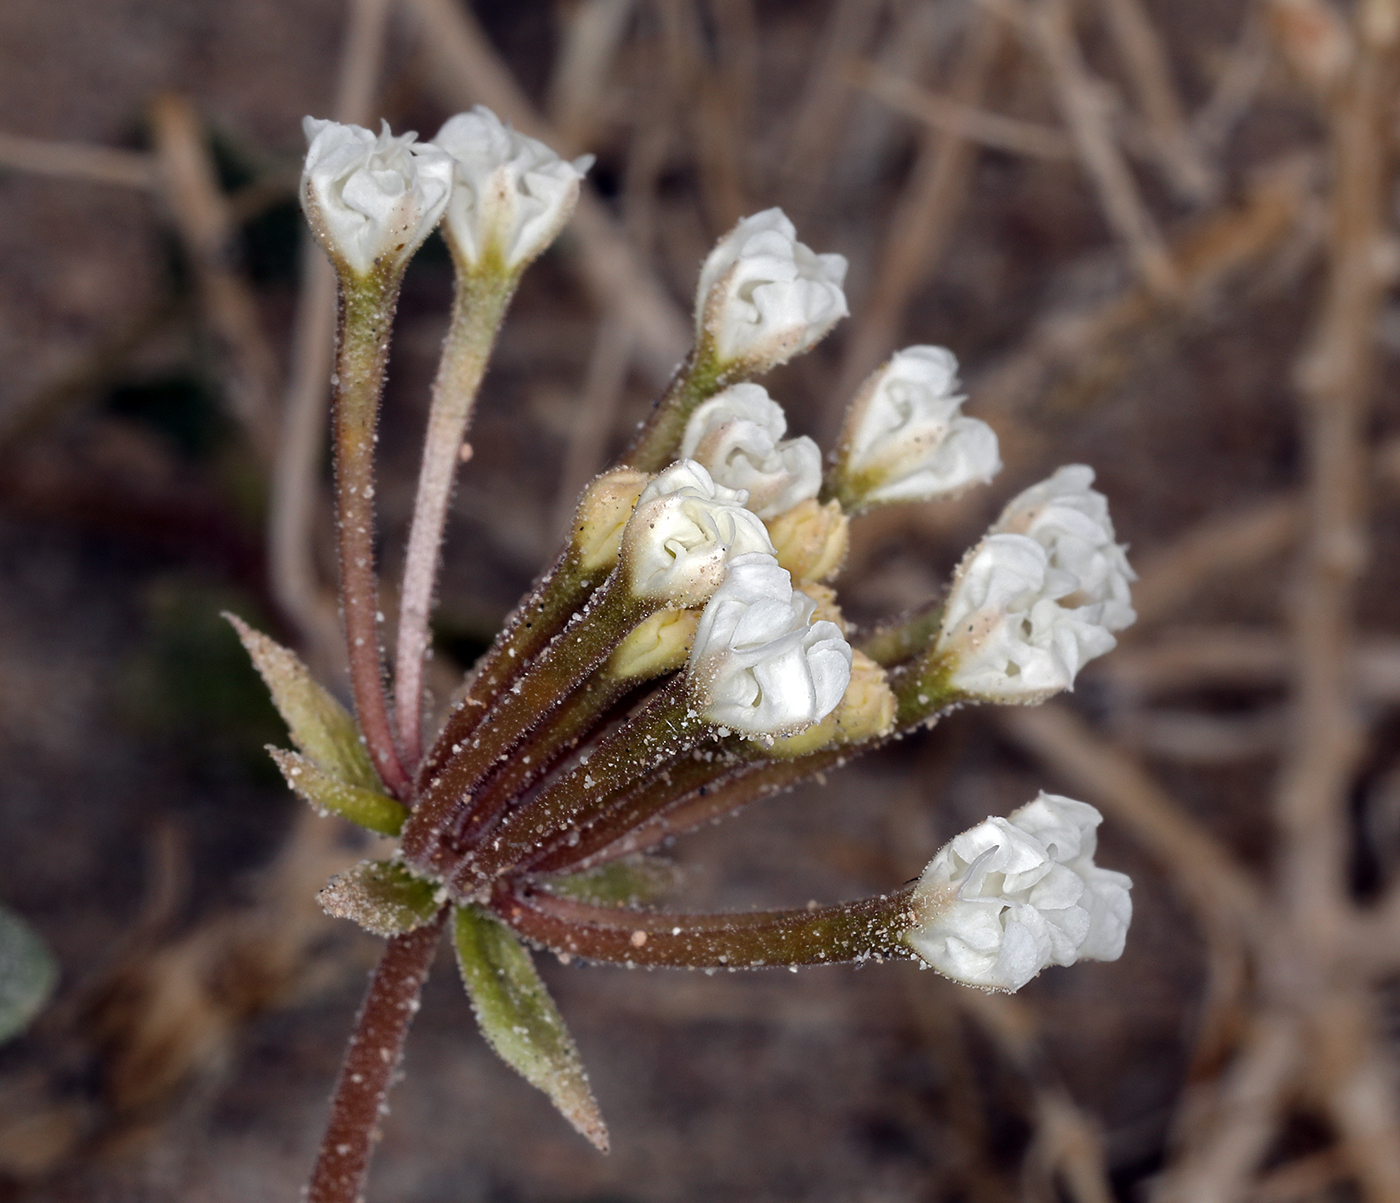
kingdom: Plantae
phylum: Tracheophyta
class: Magnoliopsida
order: Caryophyllales
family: Nyctaginaceae
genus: Abronia
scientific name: Abronia turbinata
